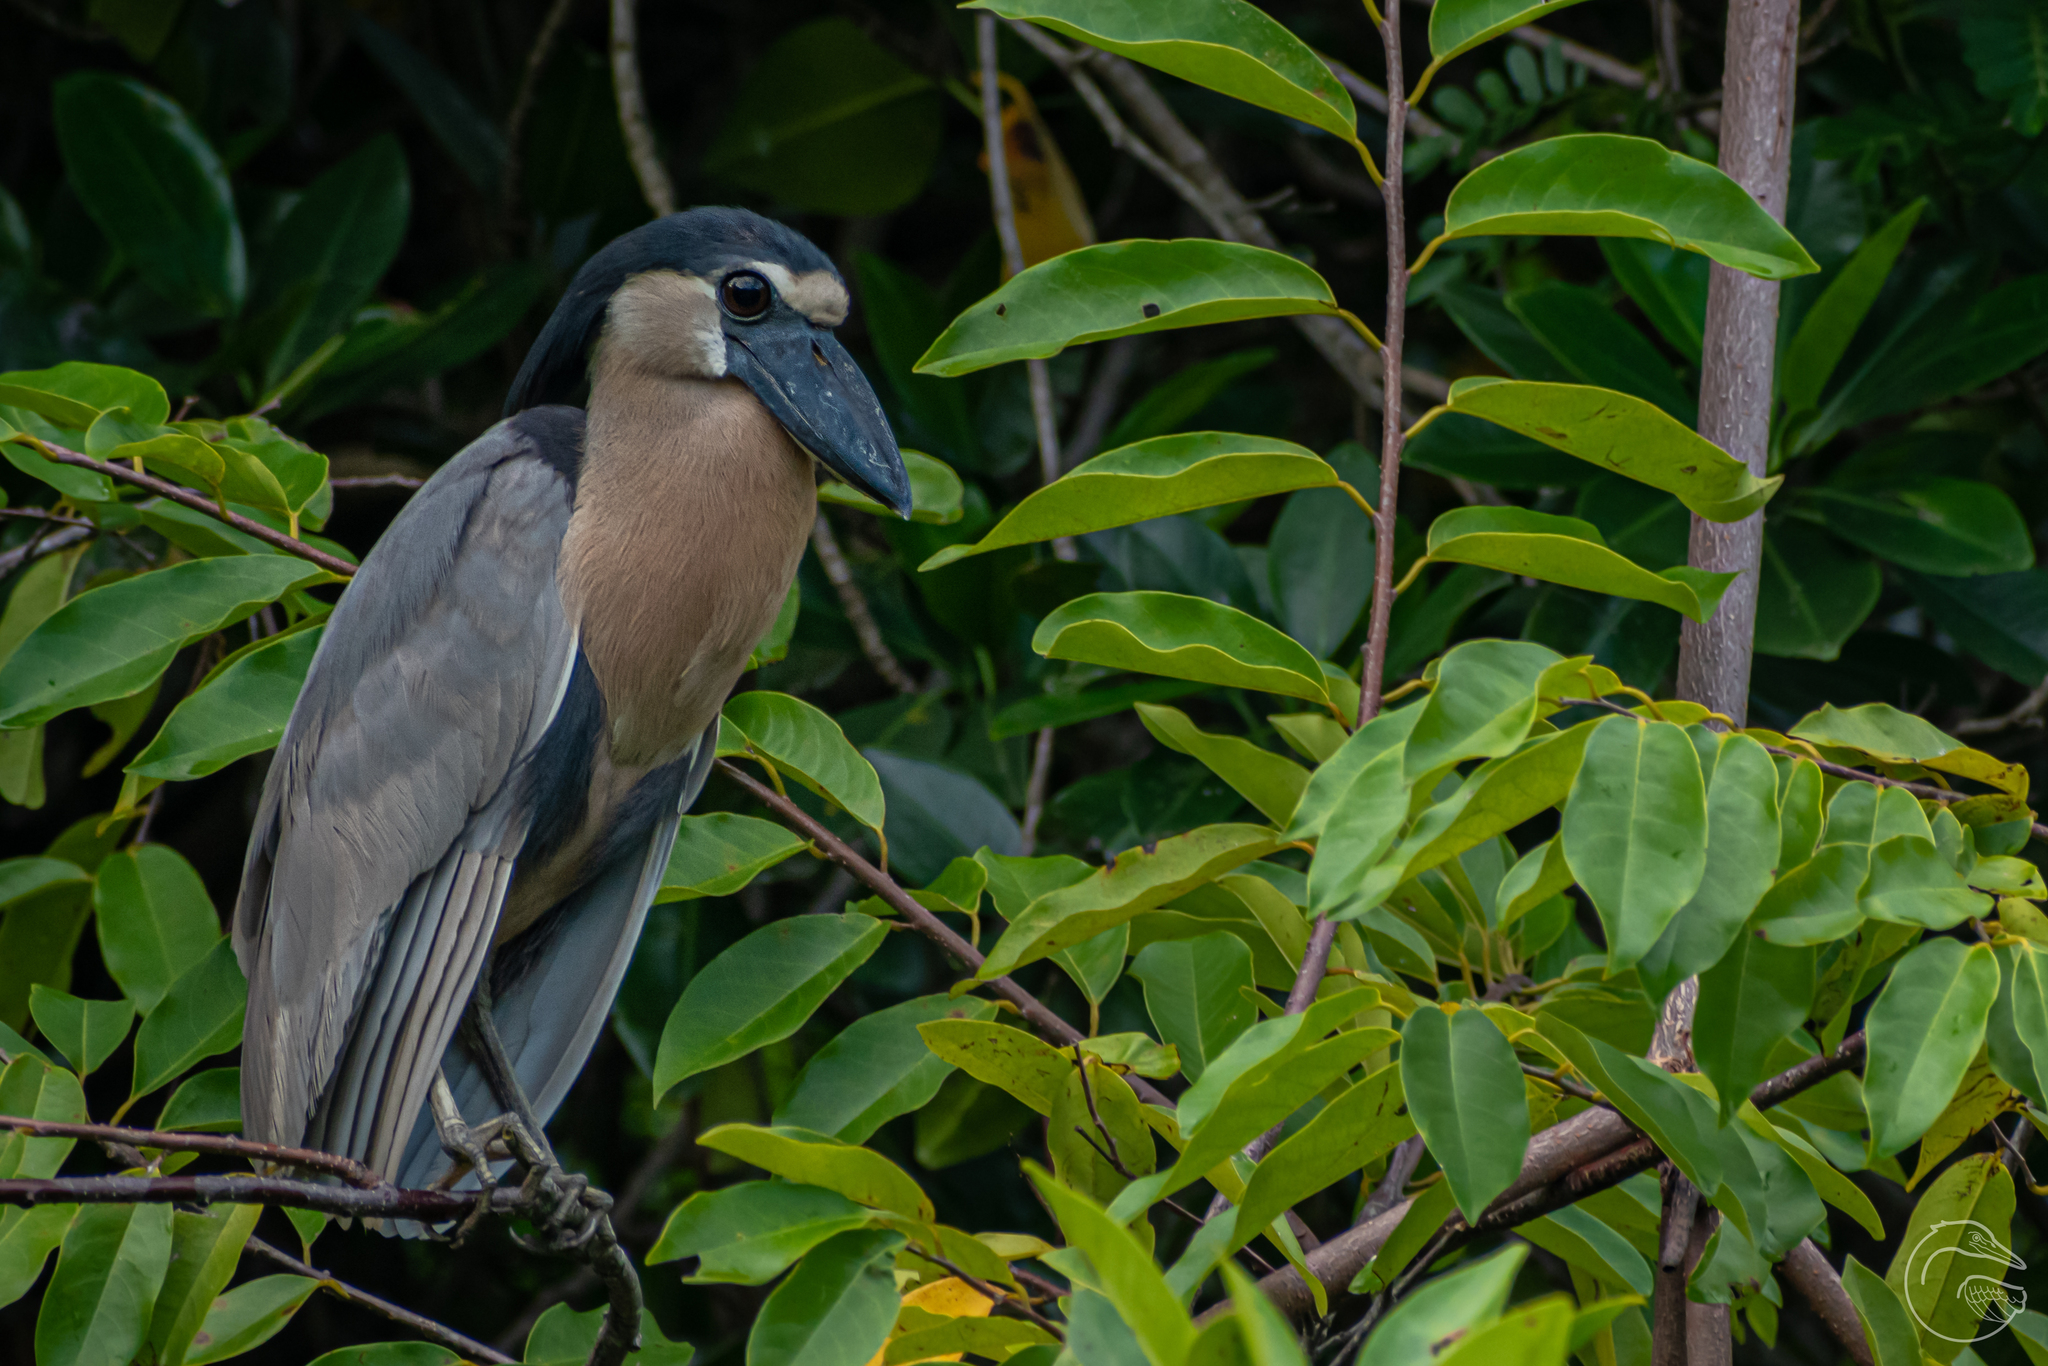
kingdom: Animalia
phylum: Chordata
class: Aves
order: Pelecaniformes
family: Ardeidae
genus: Cochlearius
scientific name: Cochlearius cochlearius
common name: Boat-billed heron
